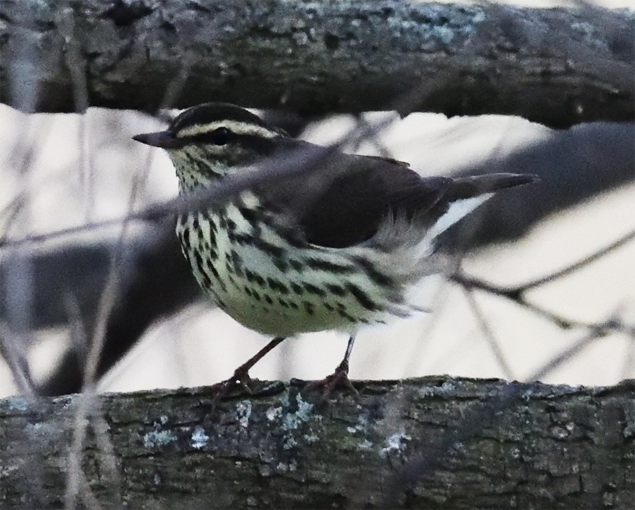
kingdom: Animalia
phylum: Chordata
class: Aves
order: Passeriformes
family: Parulidae
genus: Parkesia
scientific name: Parkesia noveboracensis
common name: Northern waterthrush
